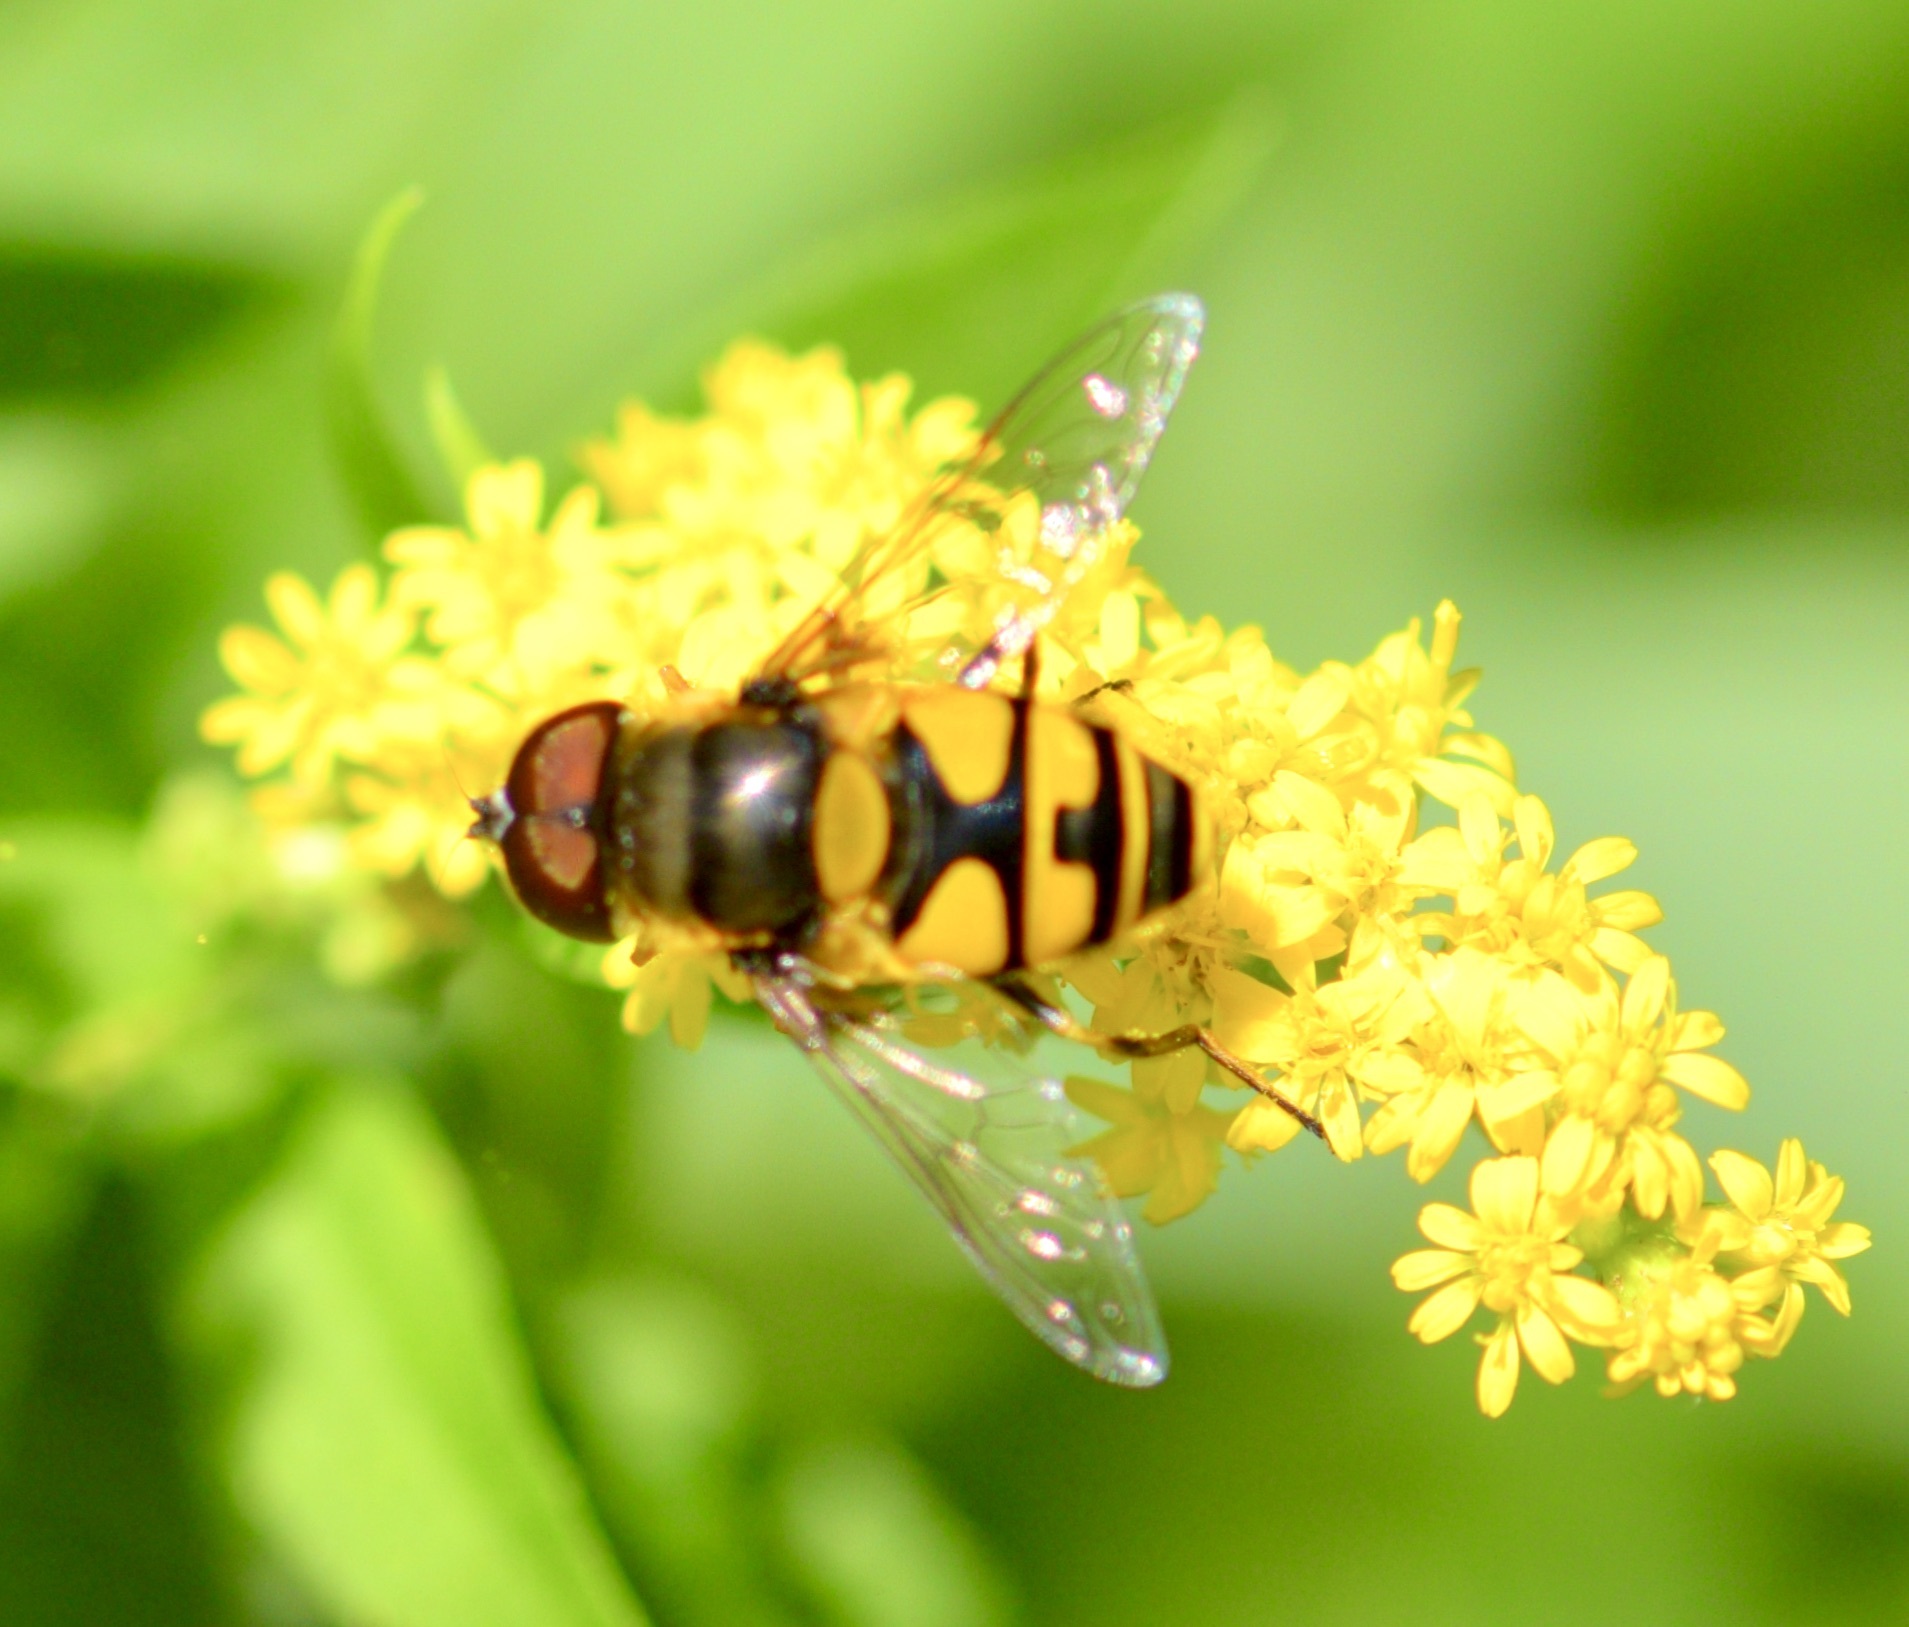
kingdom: Animalia
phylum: Arthropoda
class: Insecta
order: Diptera
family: Syrphidae
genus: Eristalis
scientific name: Eristalis transversa
